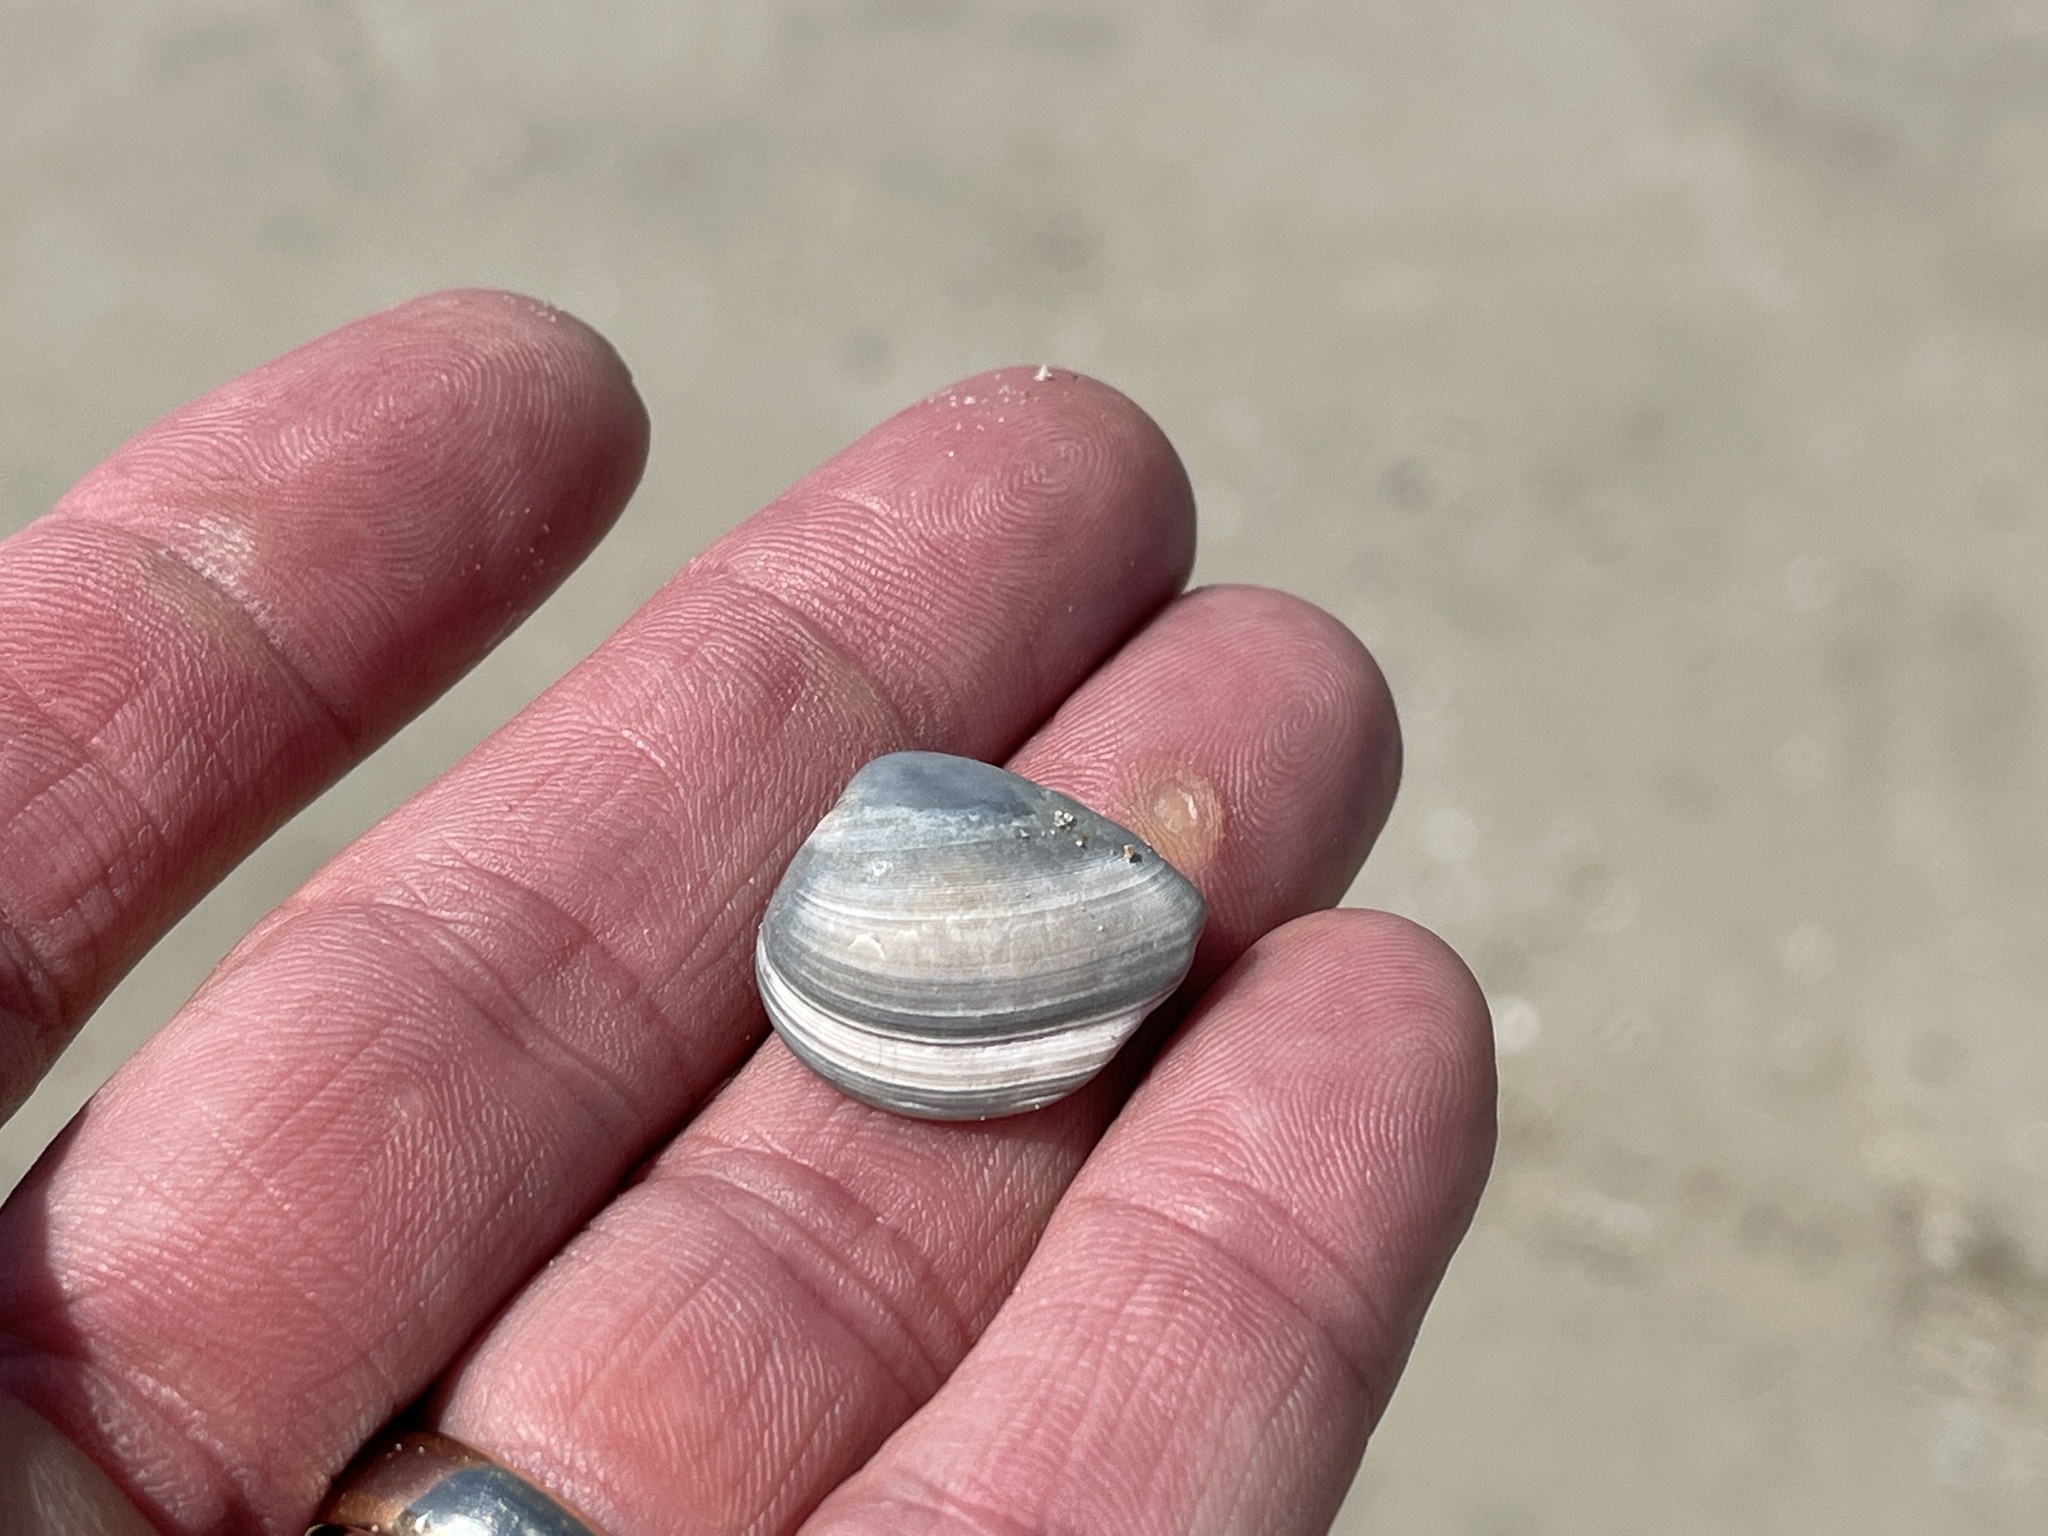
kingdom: Animalia
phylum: Mollusca
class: Bivalvia
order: Venerida
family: Mactridae
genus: Rangia
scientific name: Rangia cuneata
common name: Atlantic rangia
